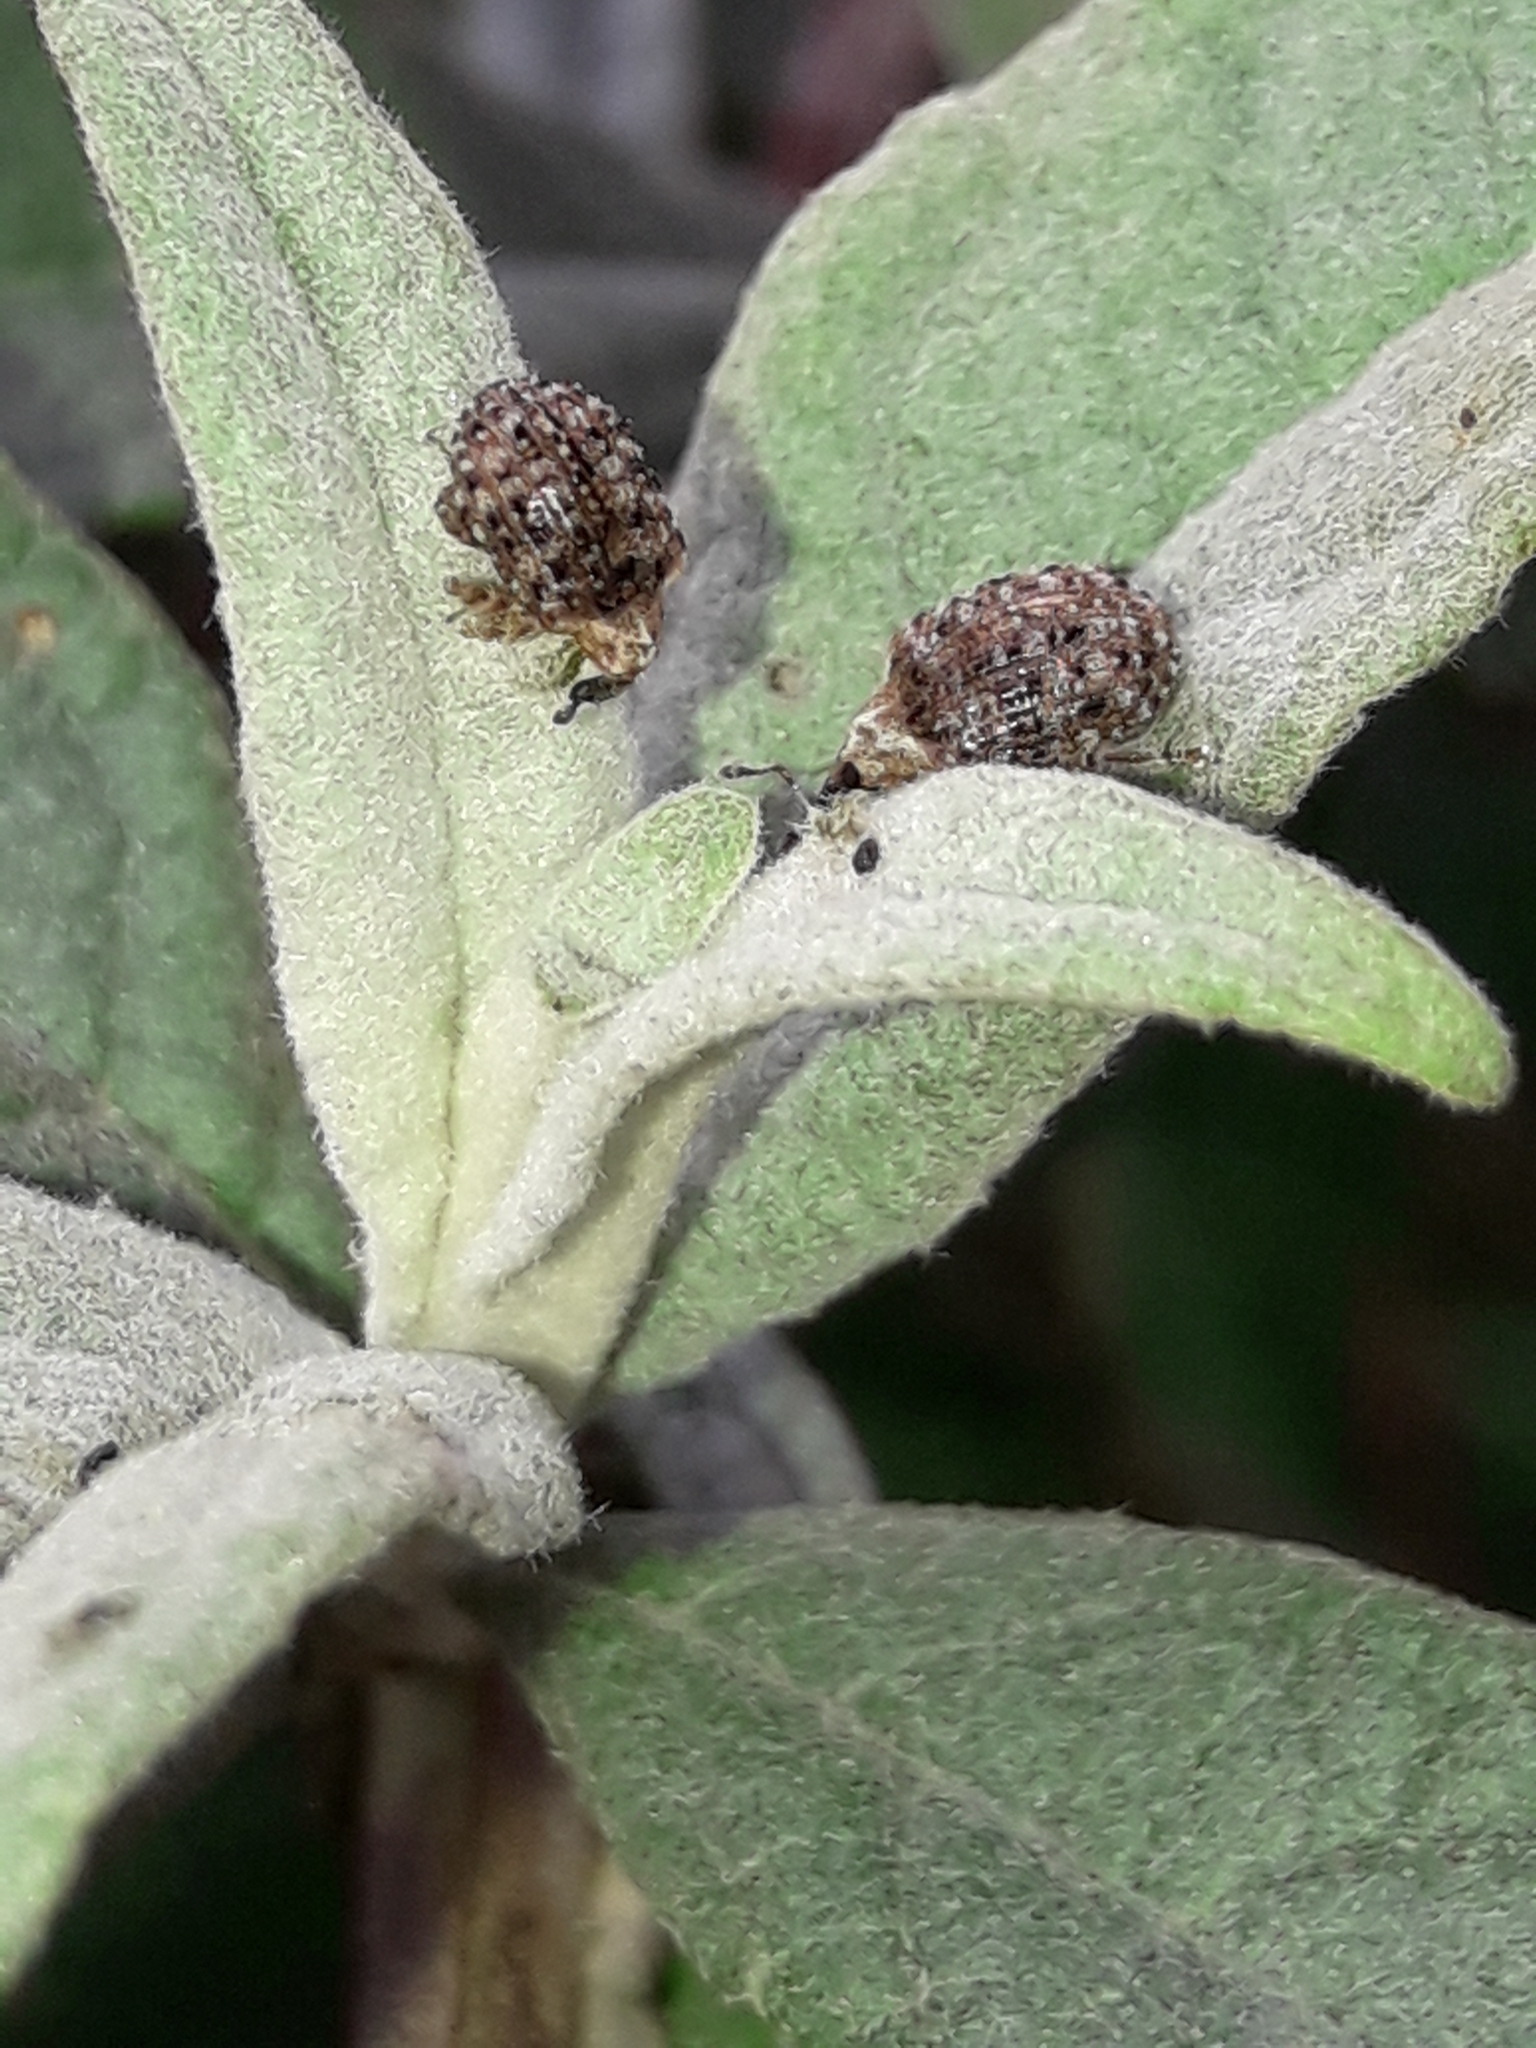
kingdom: Animalia
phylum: Arthropoda
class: Insecta
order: Coleoptera
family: Curculionidae
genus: Cleopus
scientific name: Cleopus japonicus
